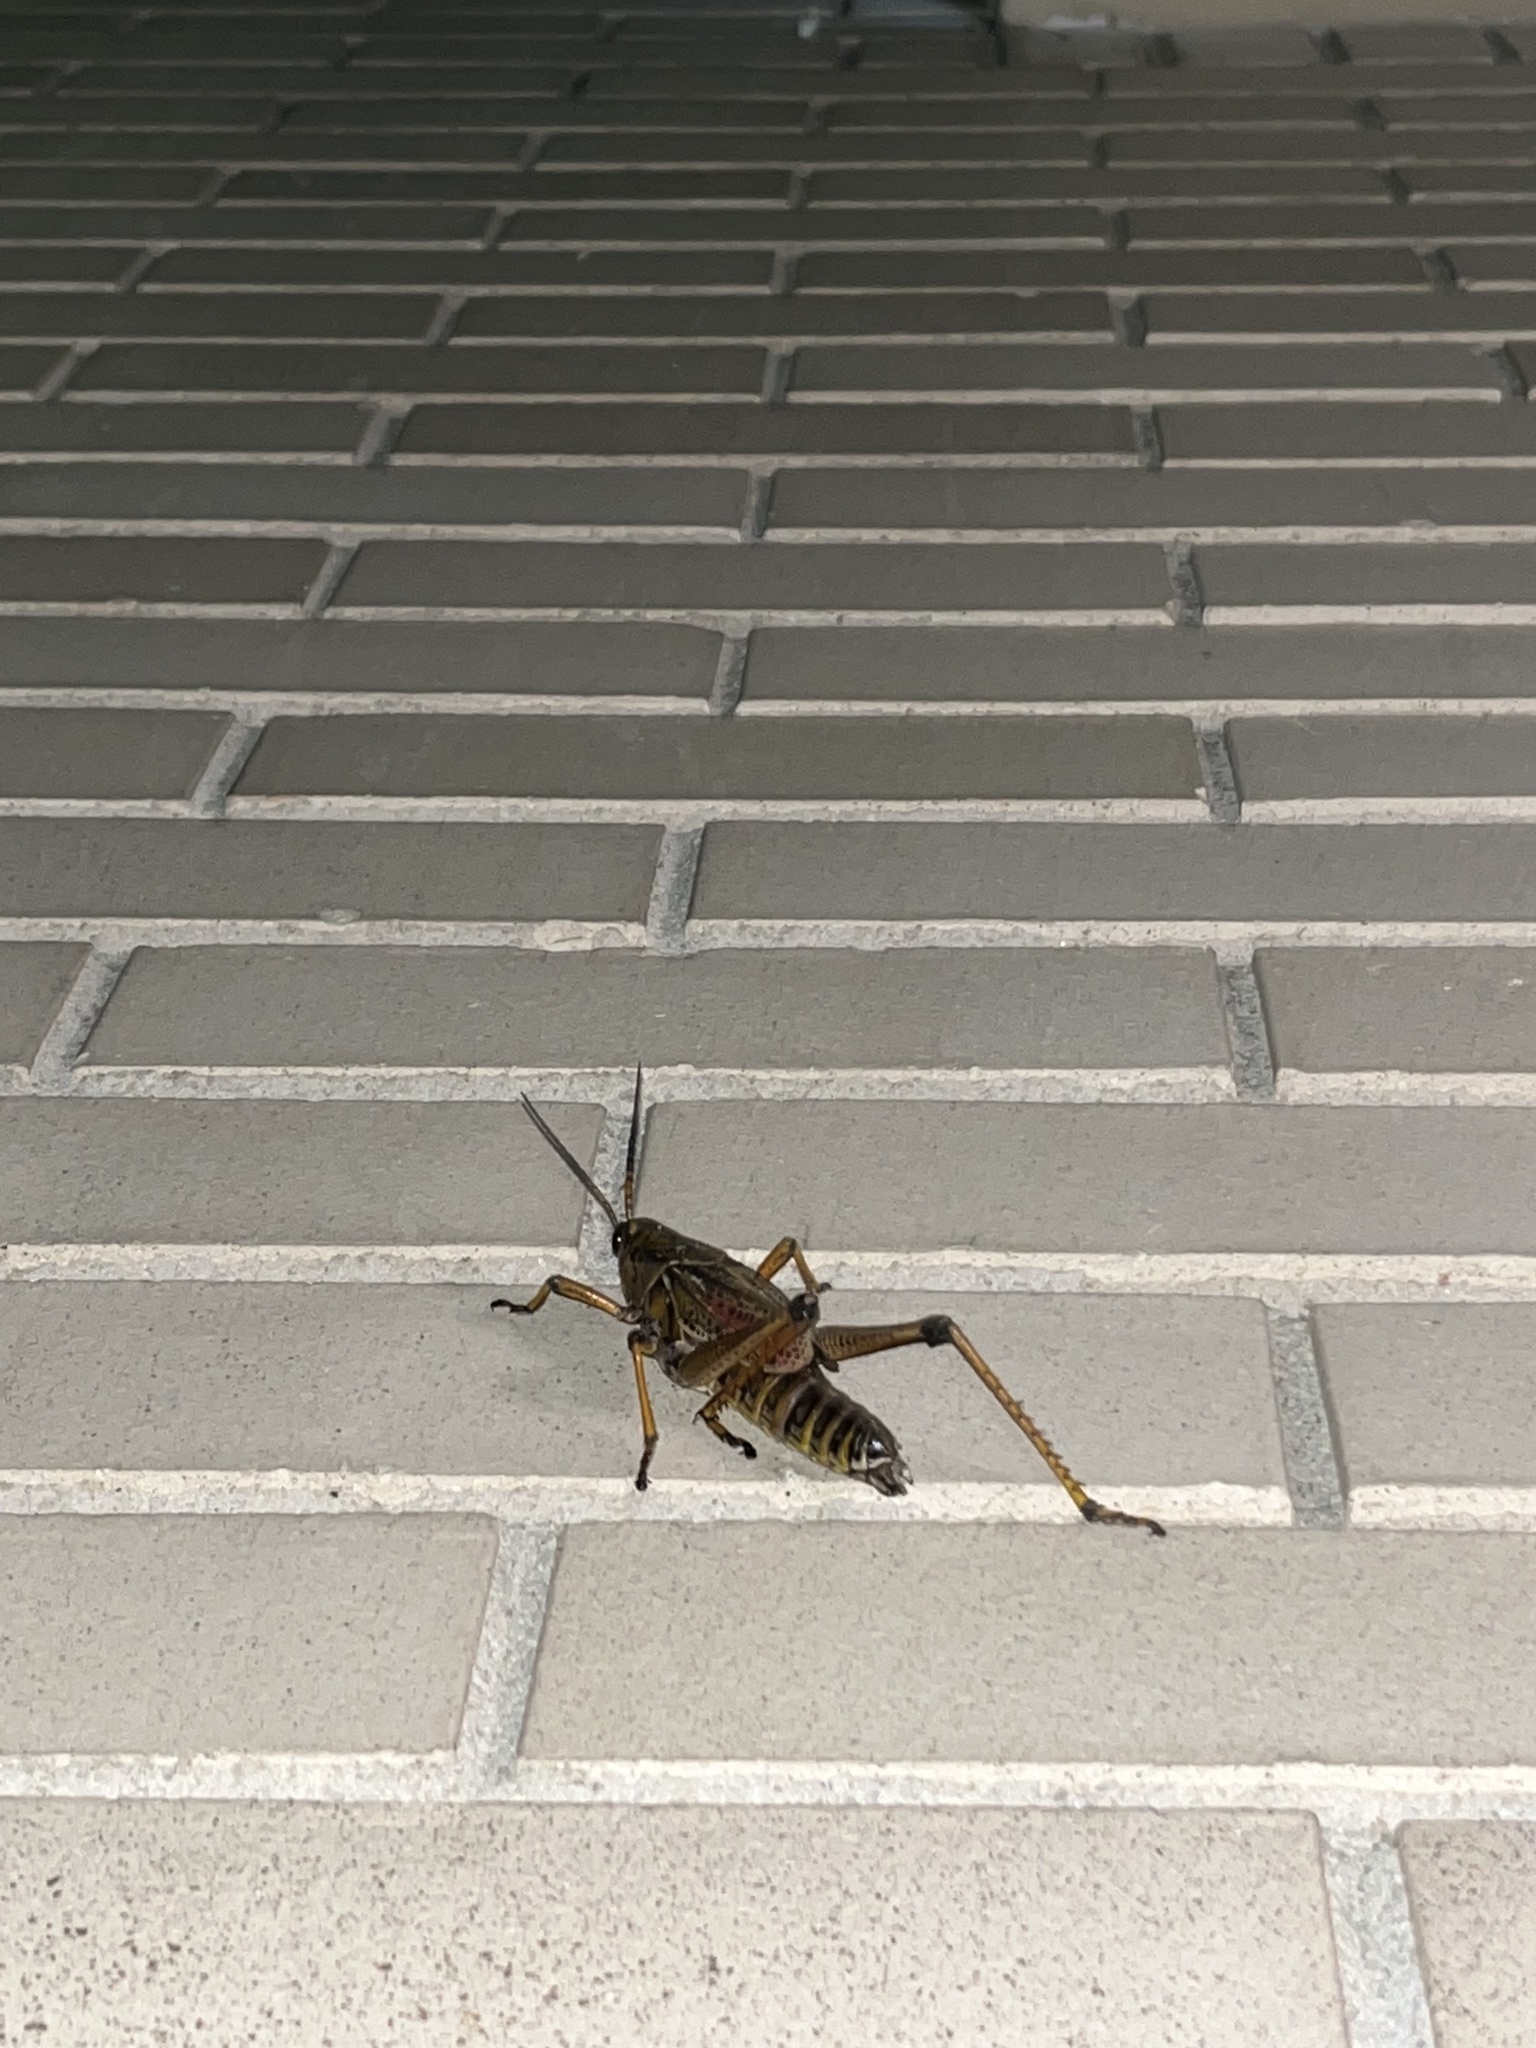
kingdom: Animalia
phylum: Arthropoda
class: Insecta
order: Orthoptera
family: Romaleidae
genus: Romalea
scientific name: Romalea microptera
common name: Eastern lubber grasshopper
